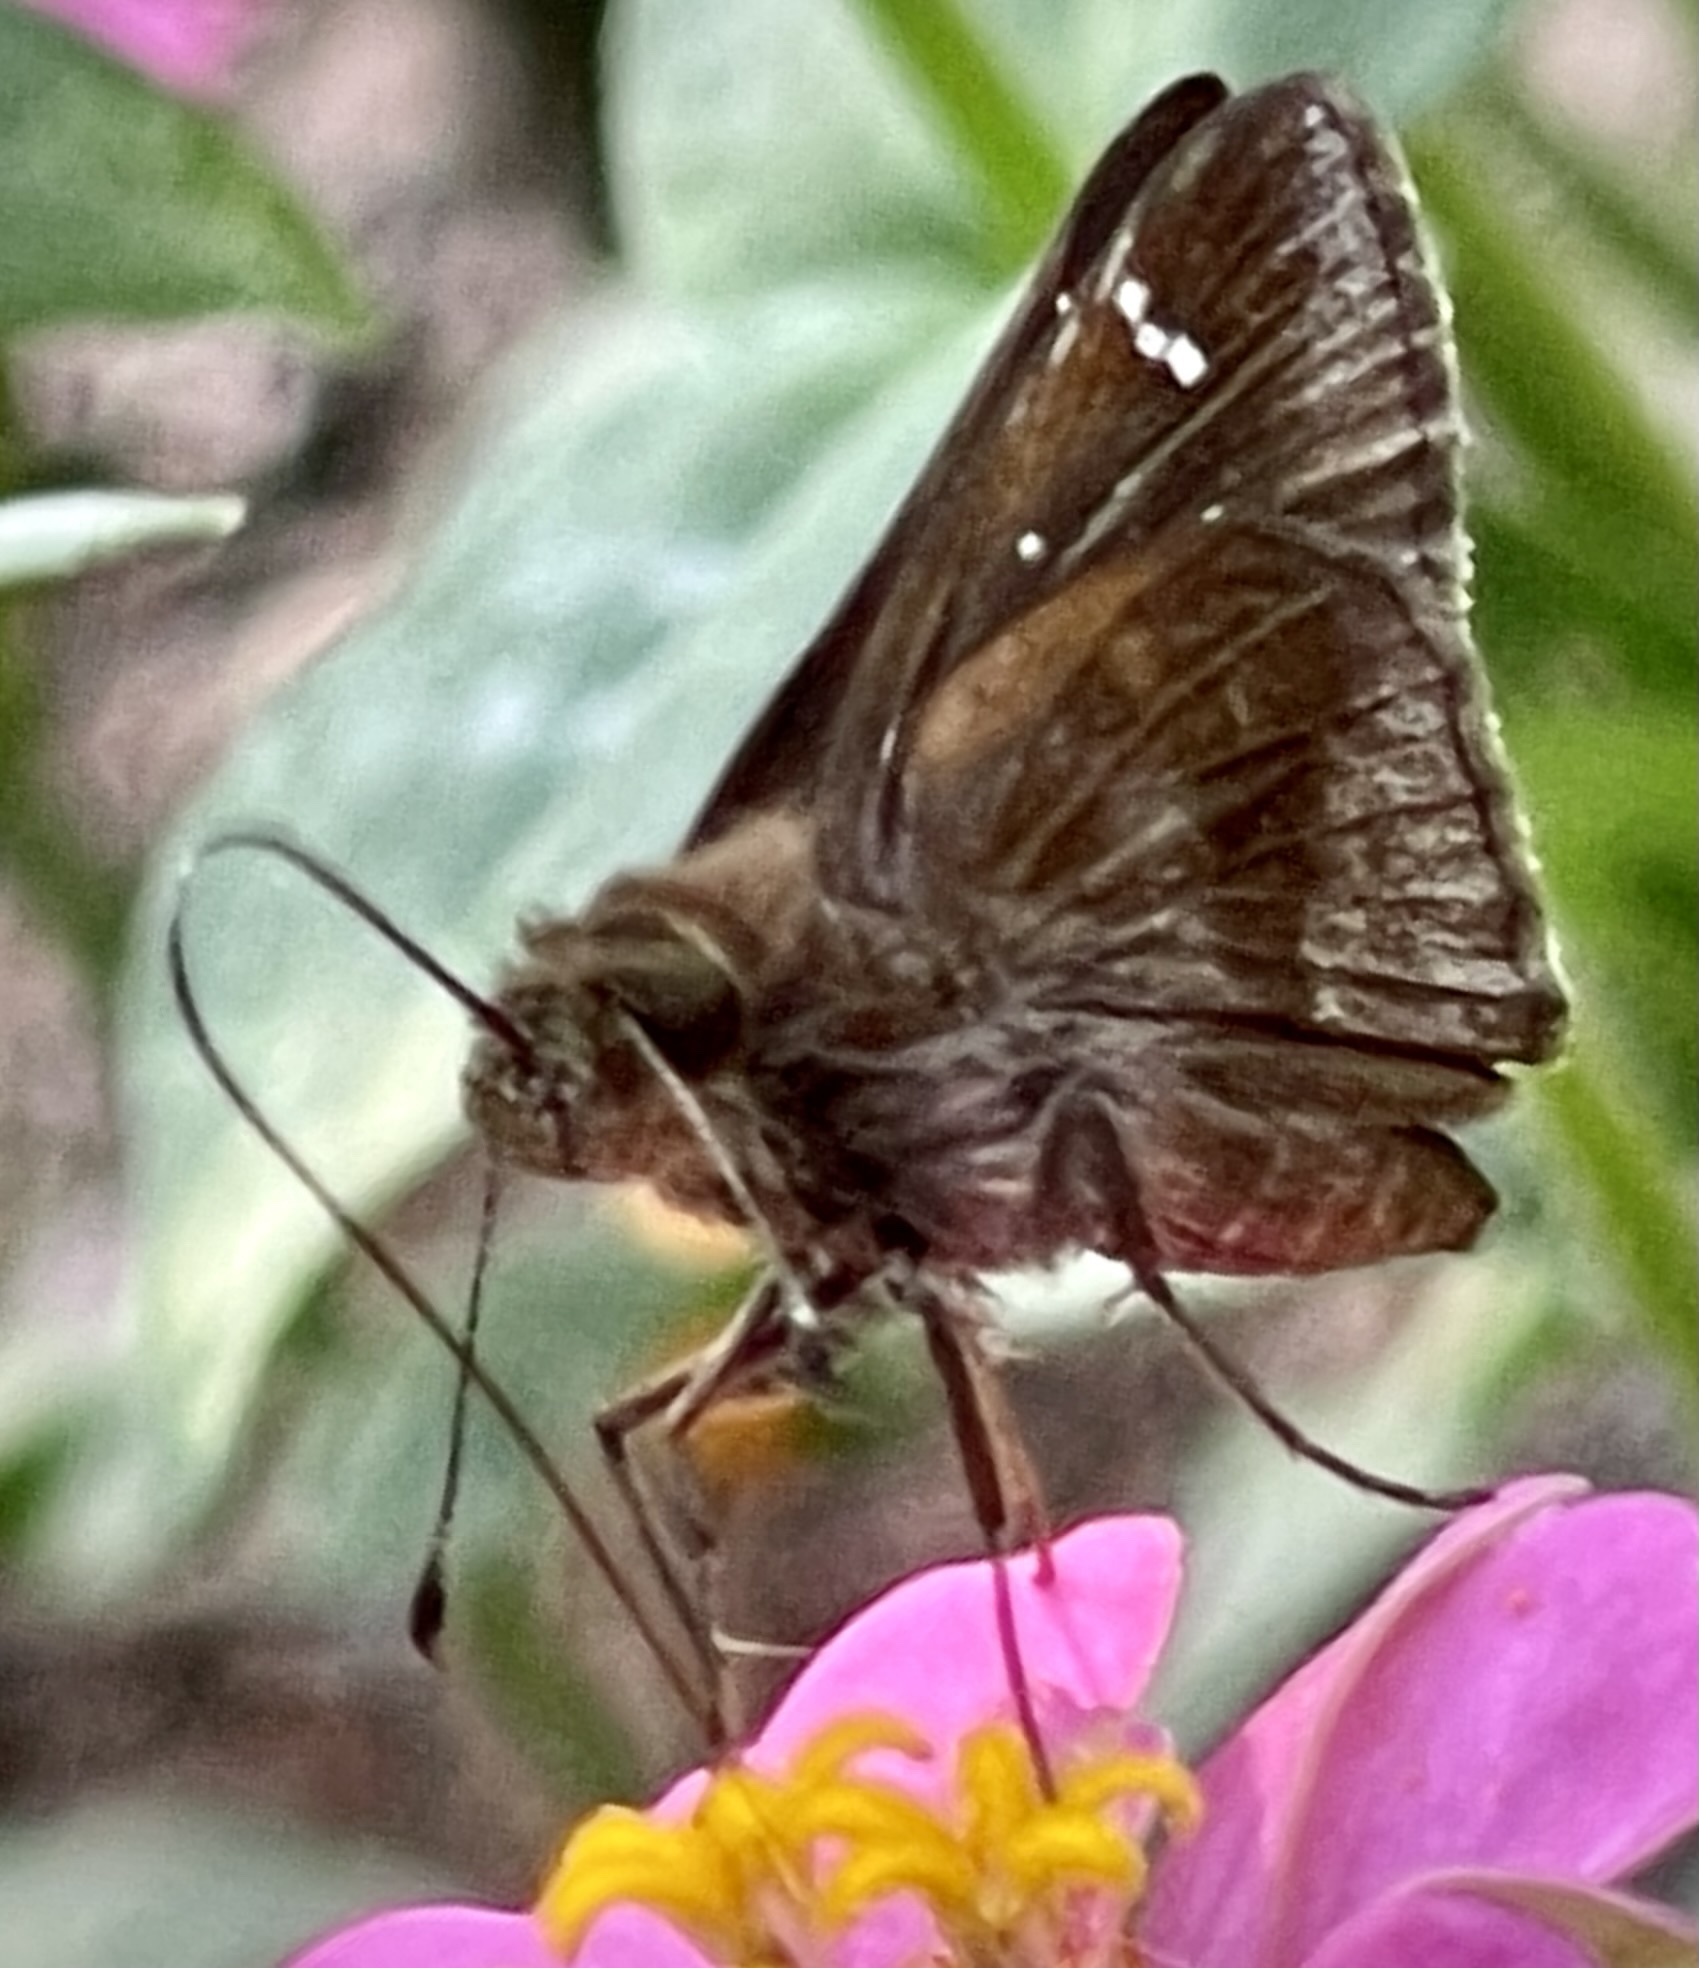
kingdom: Animalia
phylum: Arthropoda
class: Insecta
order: Lepidoptera
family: Hesperiidae
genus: Lerema
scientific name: Lerema accius
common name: Clouded skipper
